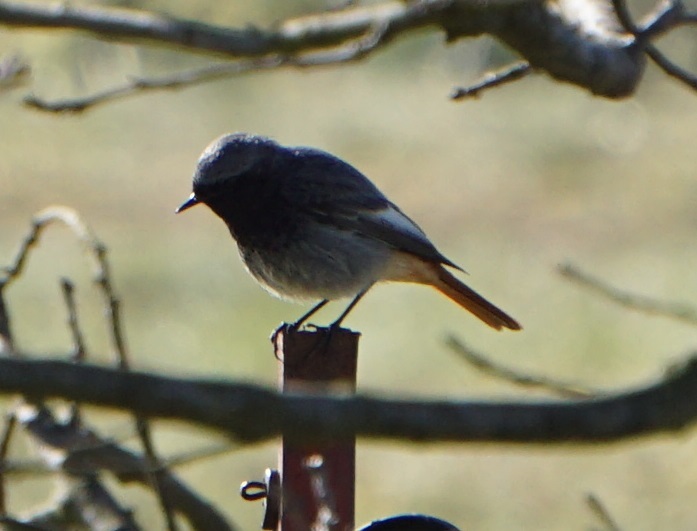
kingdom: Animalia
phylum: Chordata
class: Aves
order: Passeriformes
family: Muscicapidae
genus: Phoenicurus
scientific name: Phoenicurus ochruros
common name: Black redstart
